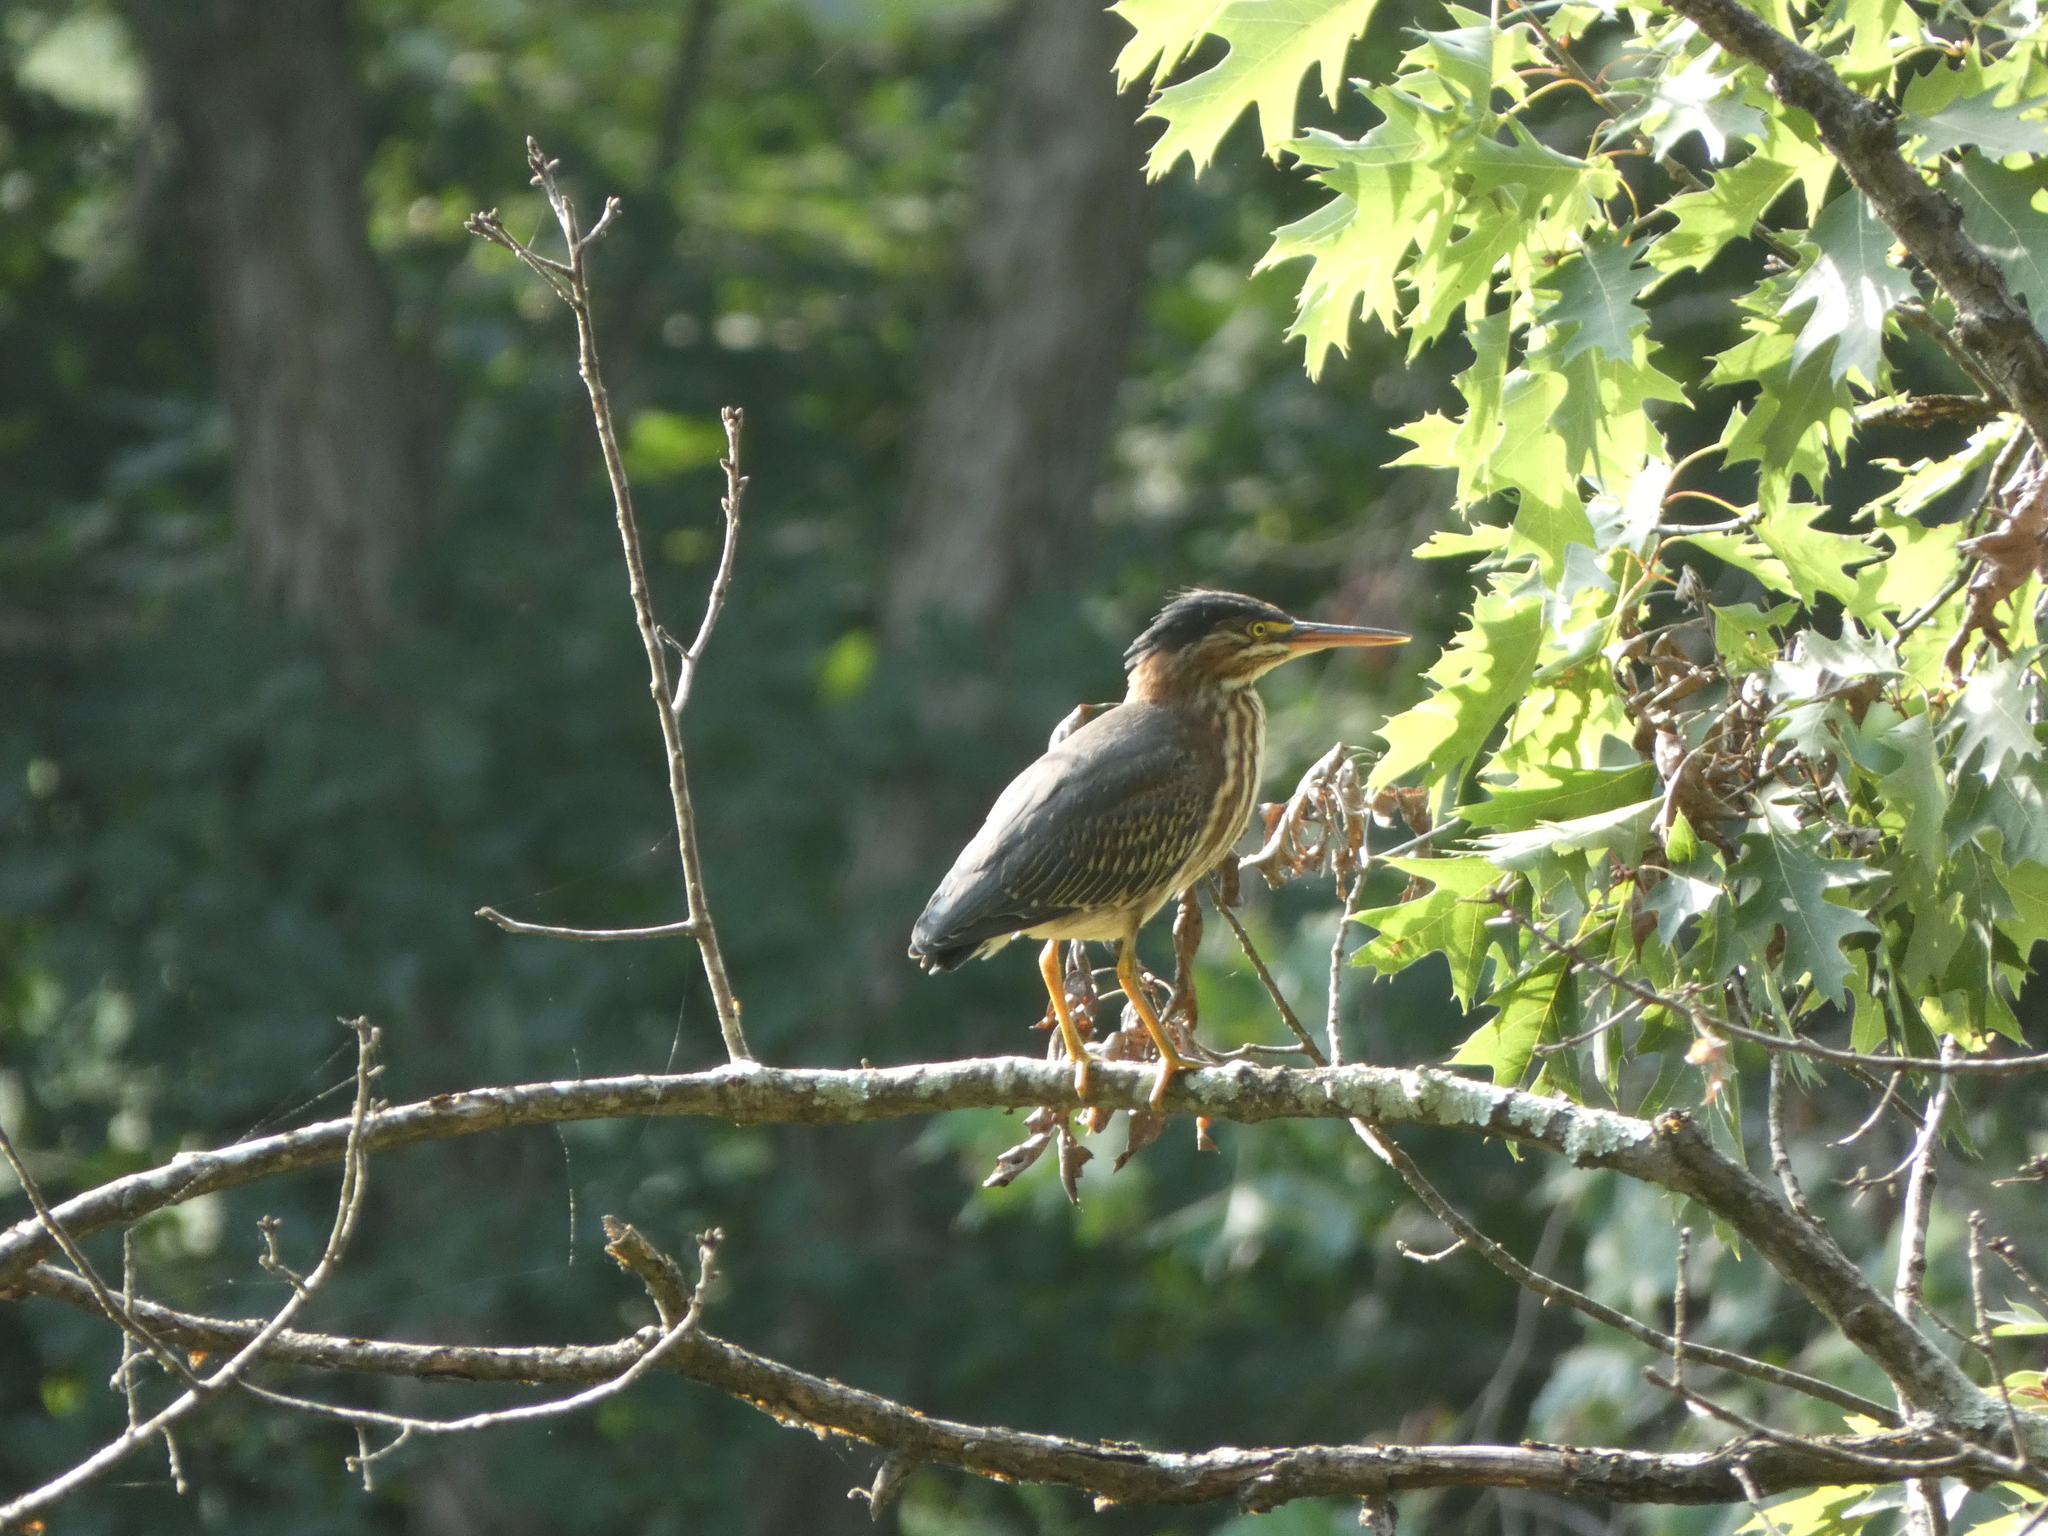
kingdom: Animalia
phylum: Chordata
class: Aves
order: Pelecaniformes
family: Ardeidae
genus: Butorides
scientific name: Butorides virescens
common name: Green heron
